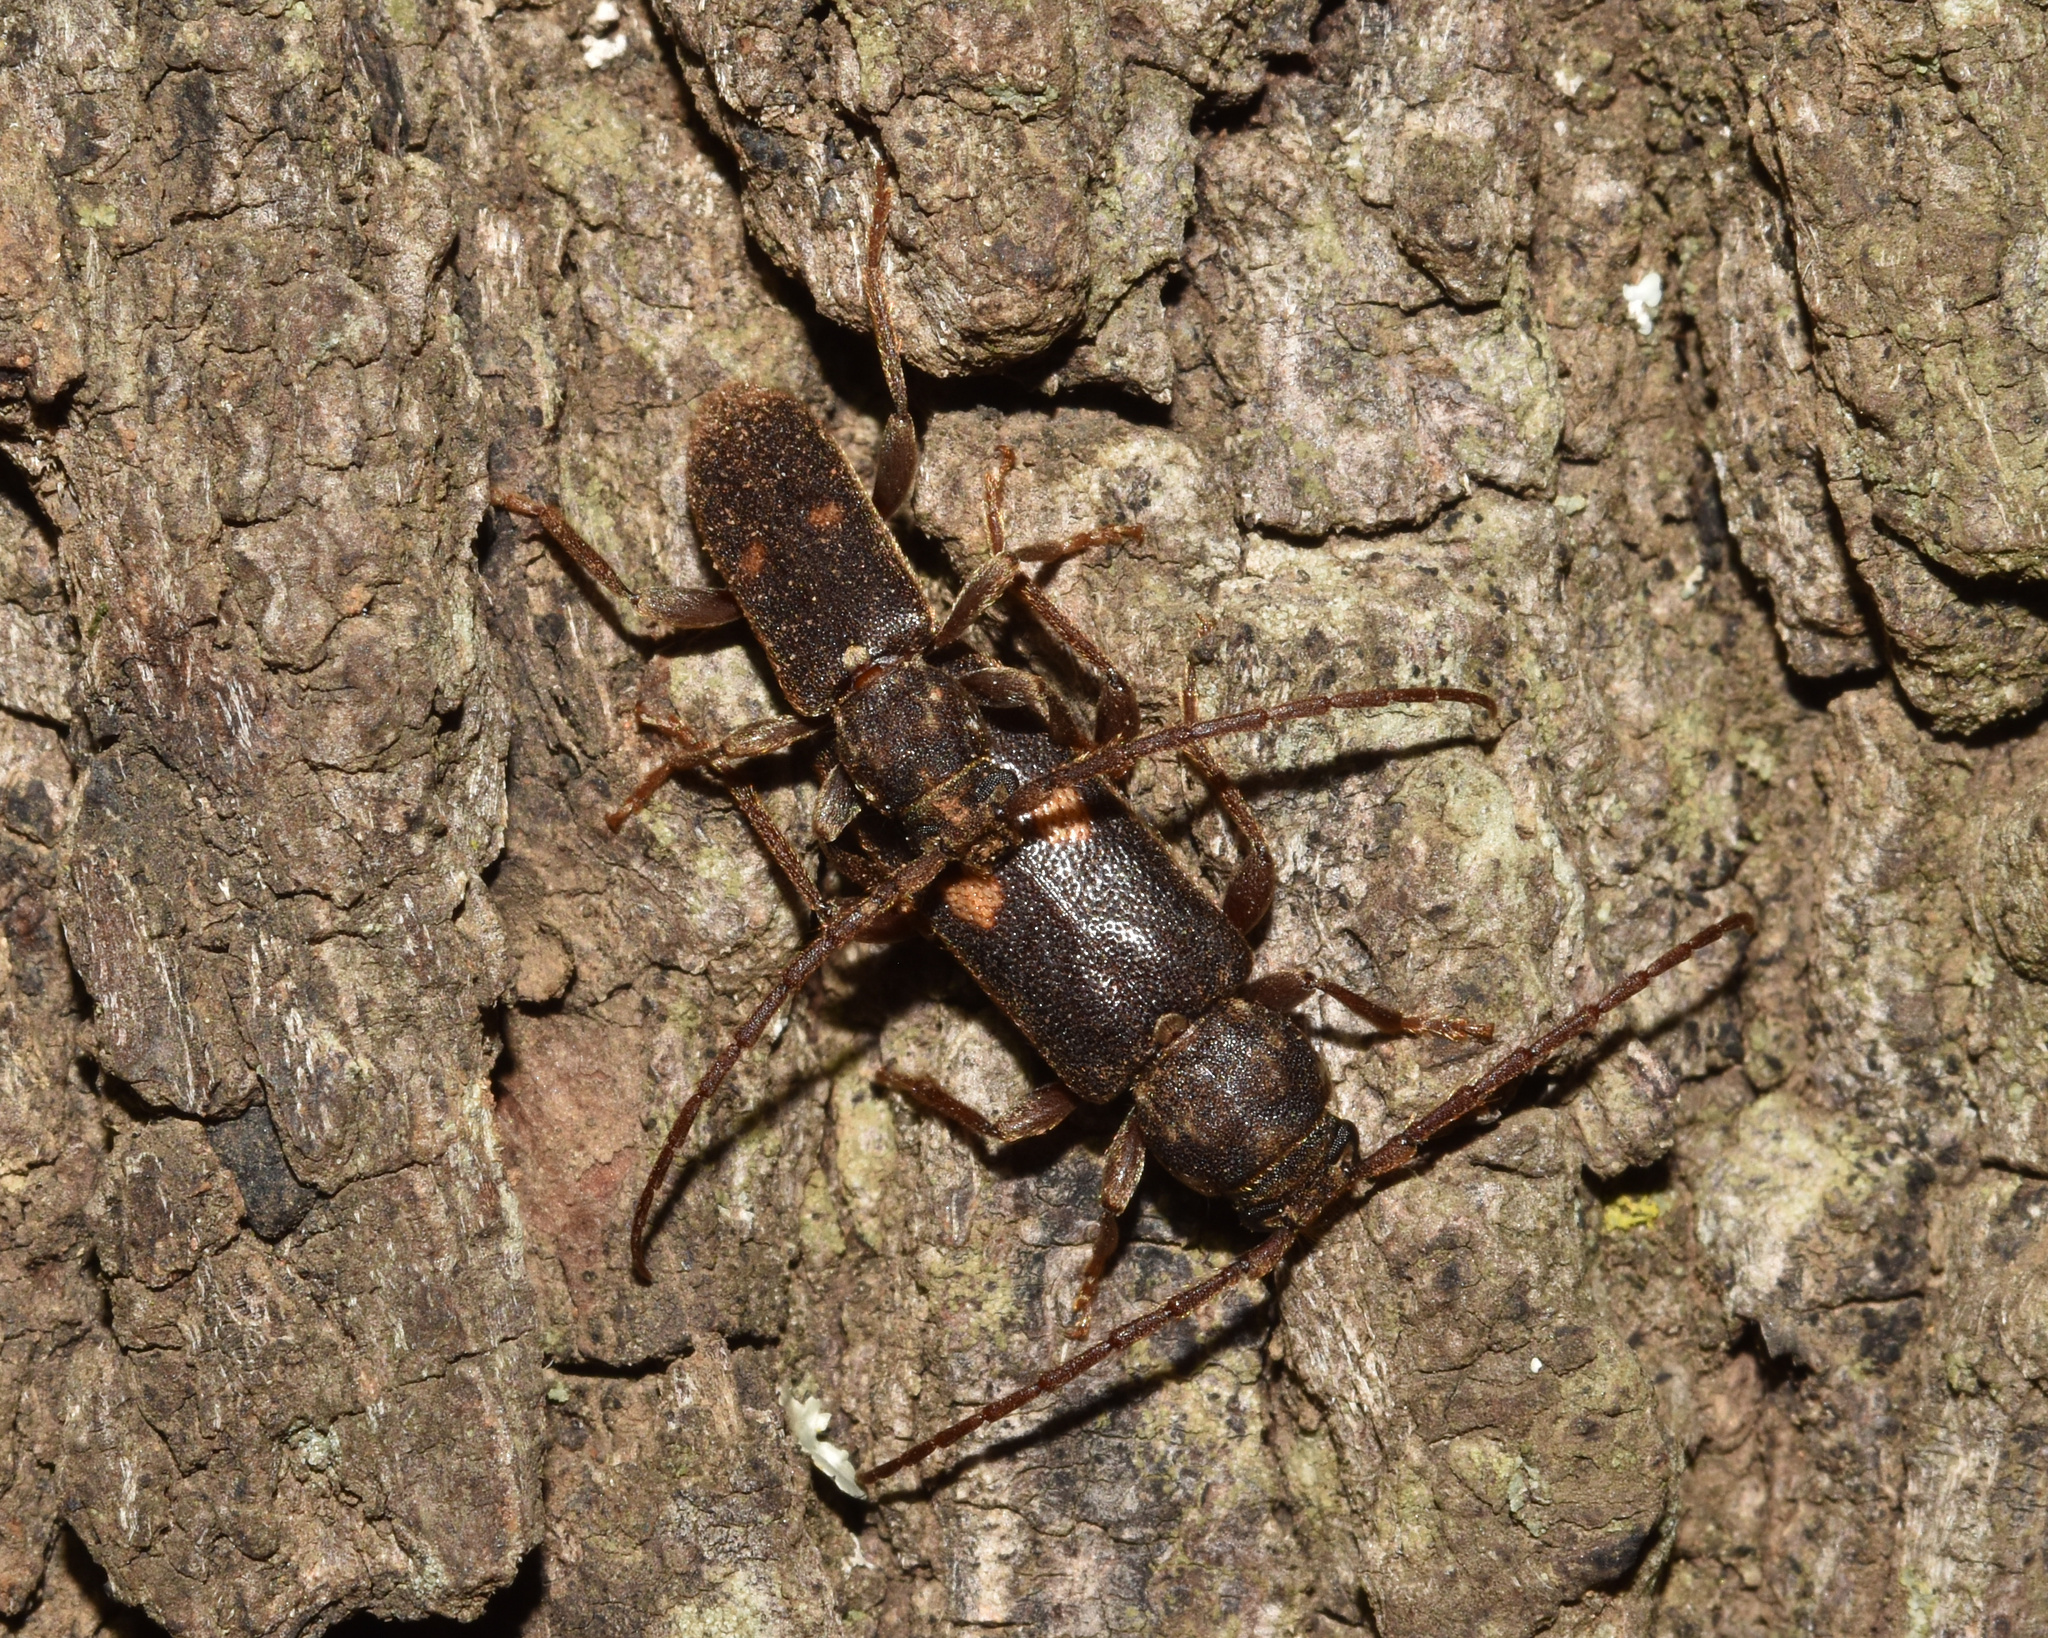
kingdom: Animalia
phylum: Arthropoda
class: Insecta
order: Coleoptera
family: Cerambycidae
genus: Zamium
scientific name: Zamium bimaculatum
